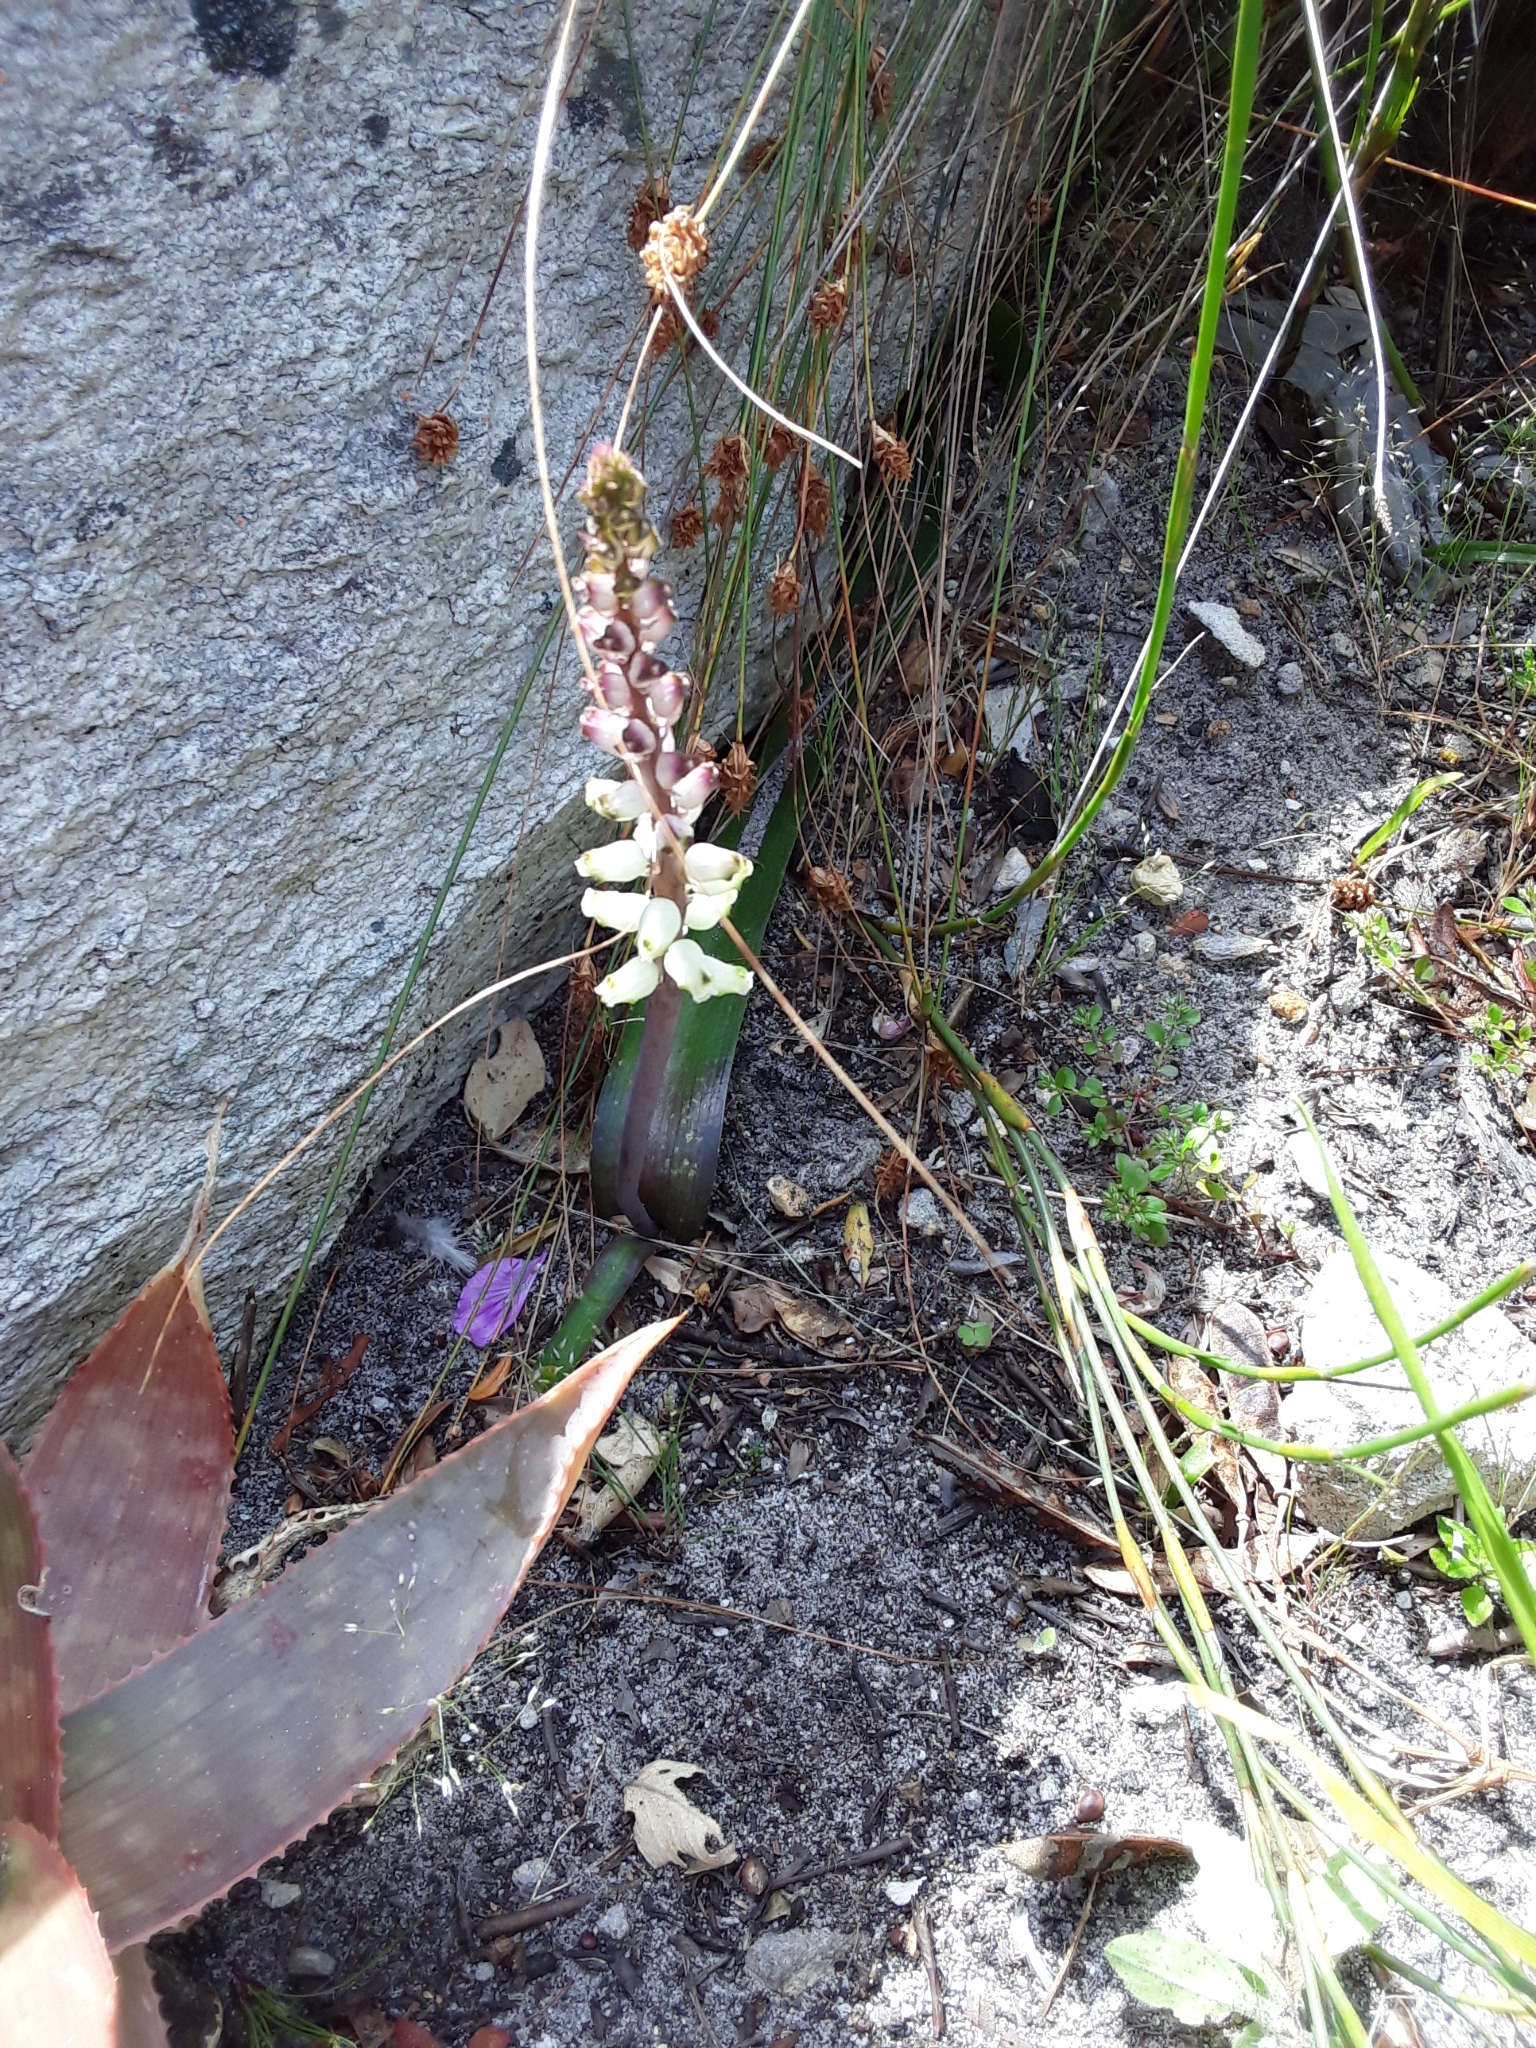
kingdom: Plantae
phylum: Tracheophyta
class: Liliopsida
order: Asparagales
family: Asparagaceae
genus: Lachenalia
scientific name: Lachenalia peersii
